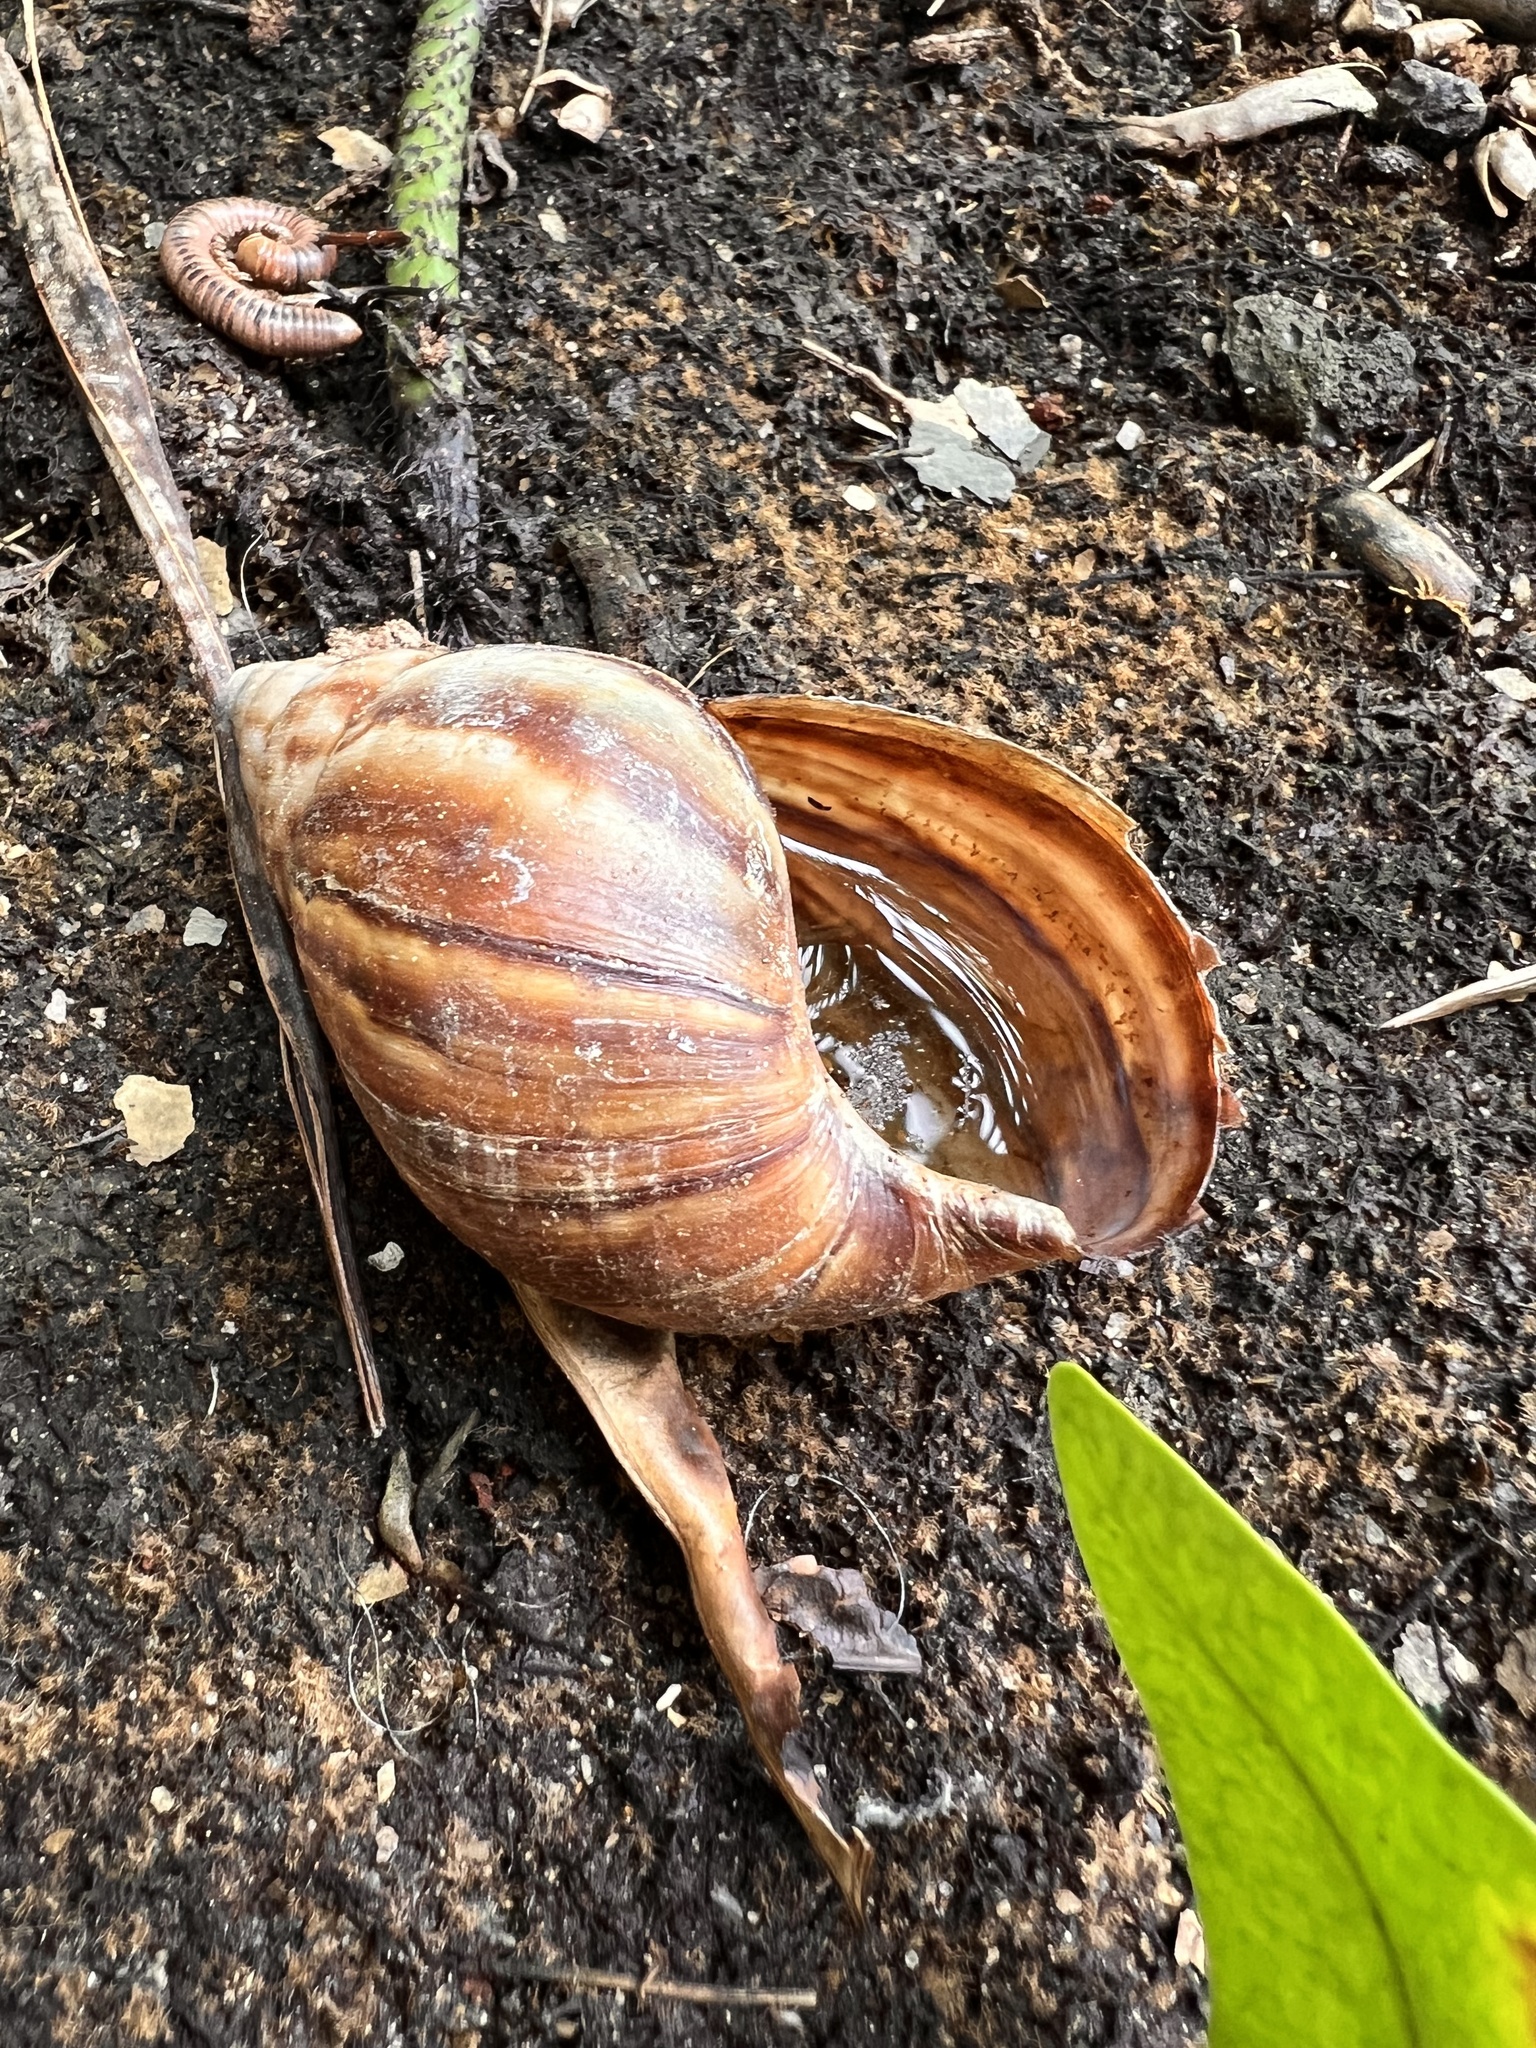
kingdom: Animalia
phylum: Mollusca
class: Gastropoda
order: Stylommatophora
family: Achatinidae
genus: Lissachatina
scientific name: Lissachatina fulica
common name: Giant african snail
